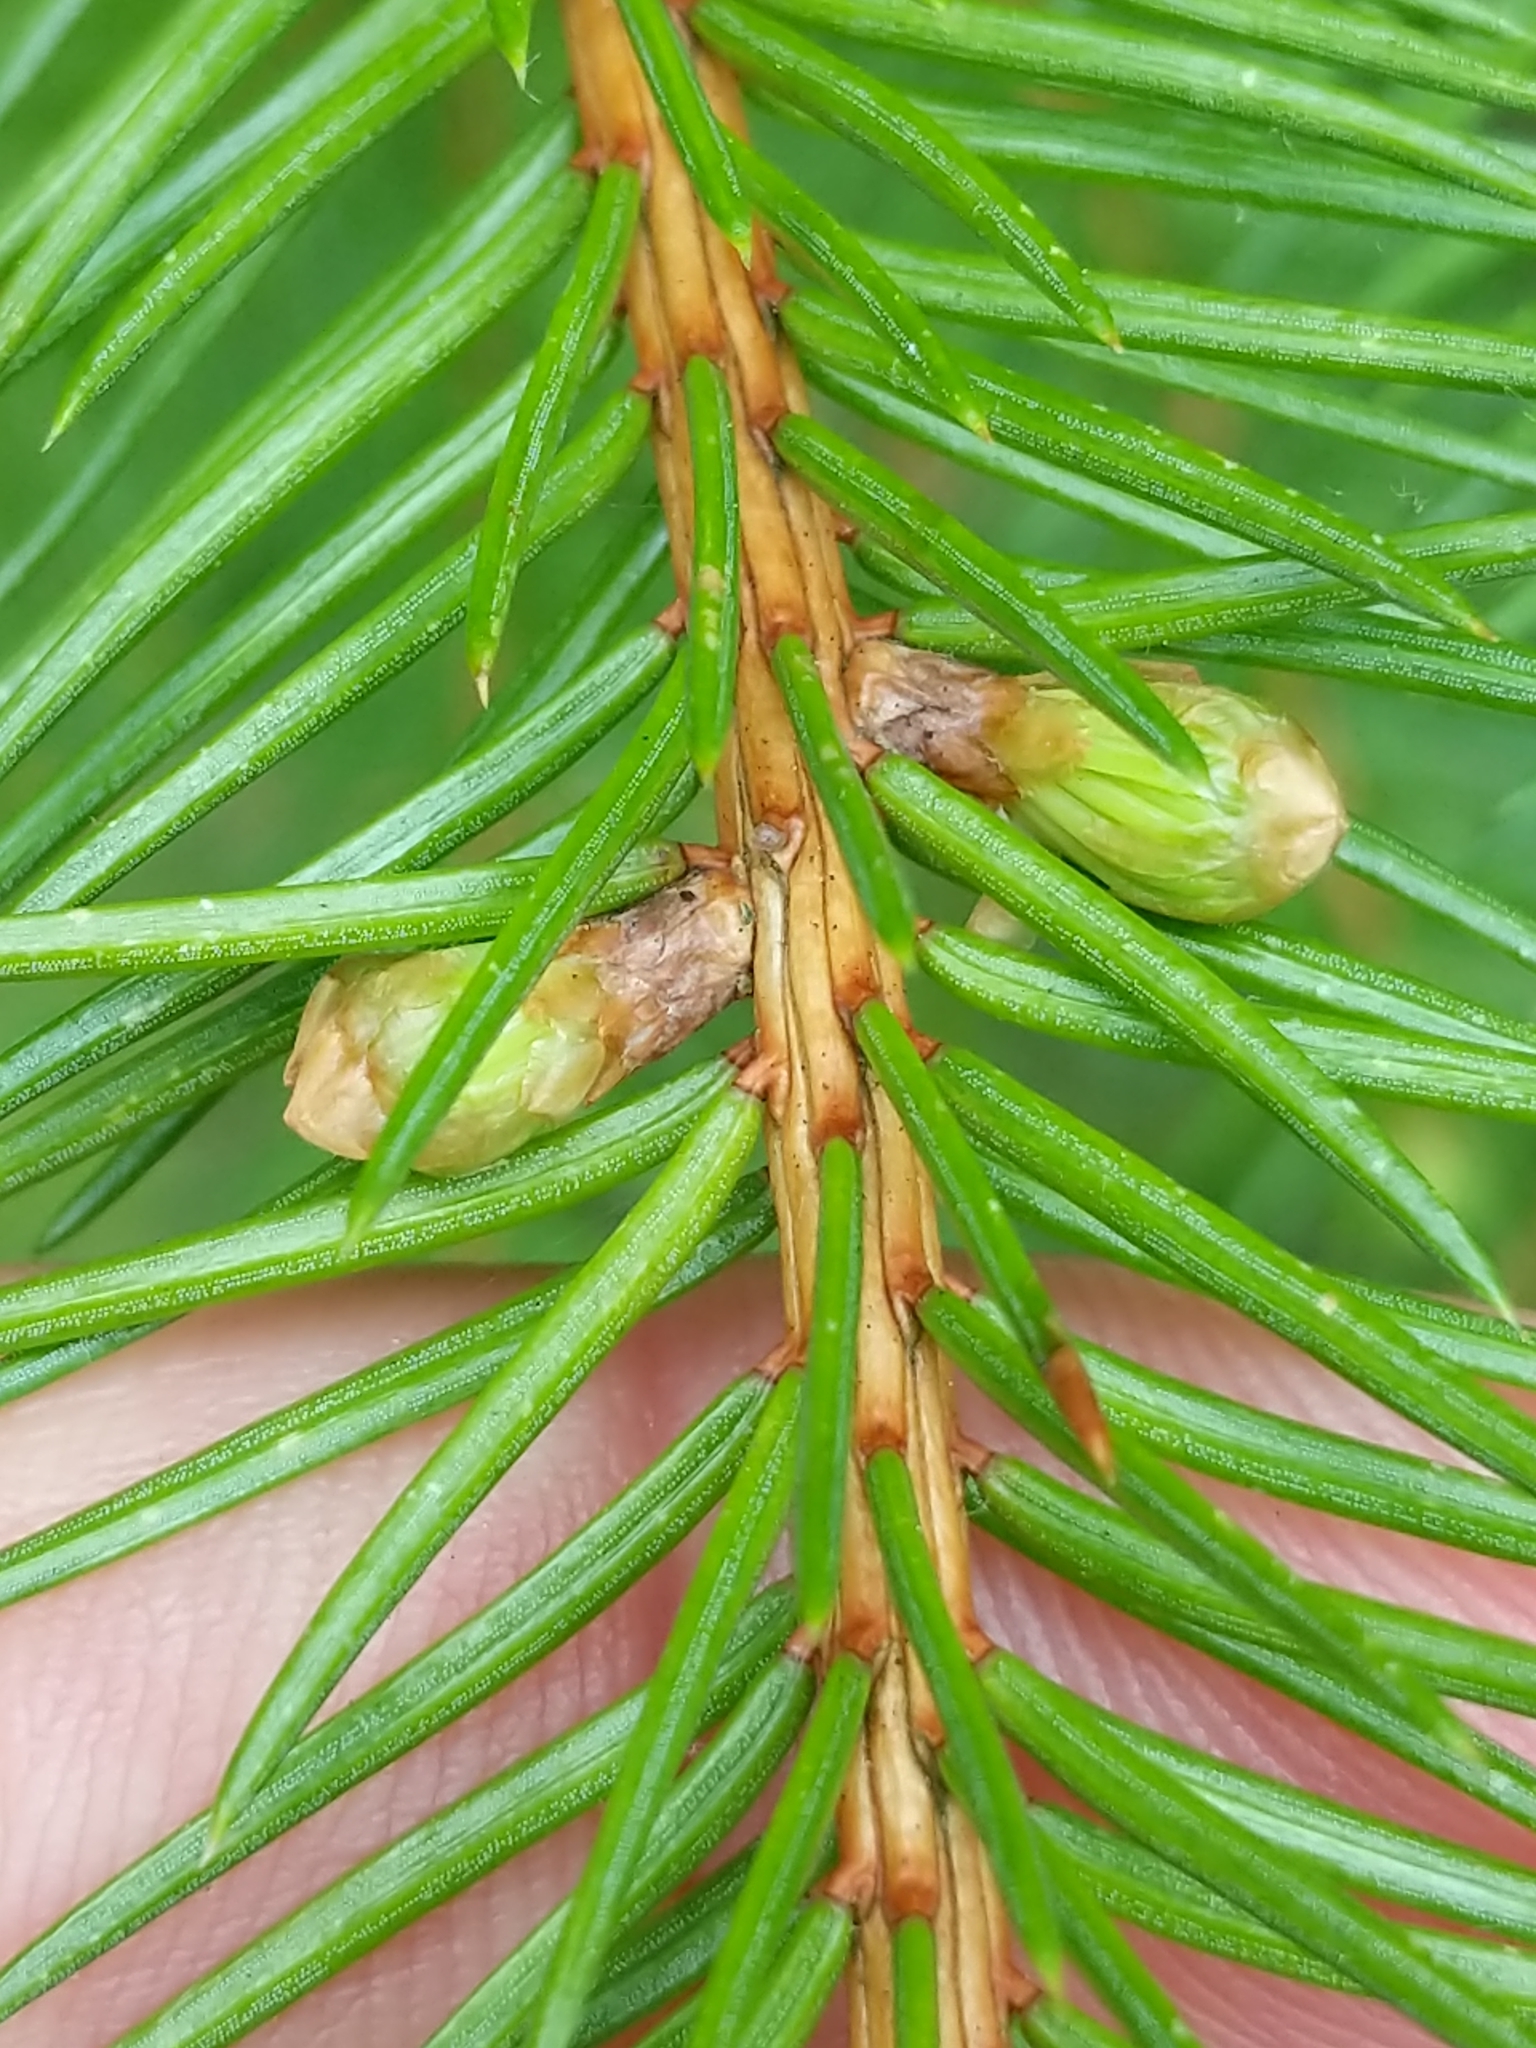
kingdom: Plantae
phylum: Tracheophyta
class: Pinopsida
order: Pinales
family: Pinaceae
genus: Picea
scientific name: Picea abies
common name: Norway spruce
